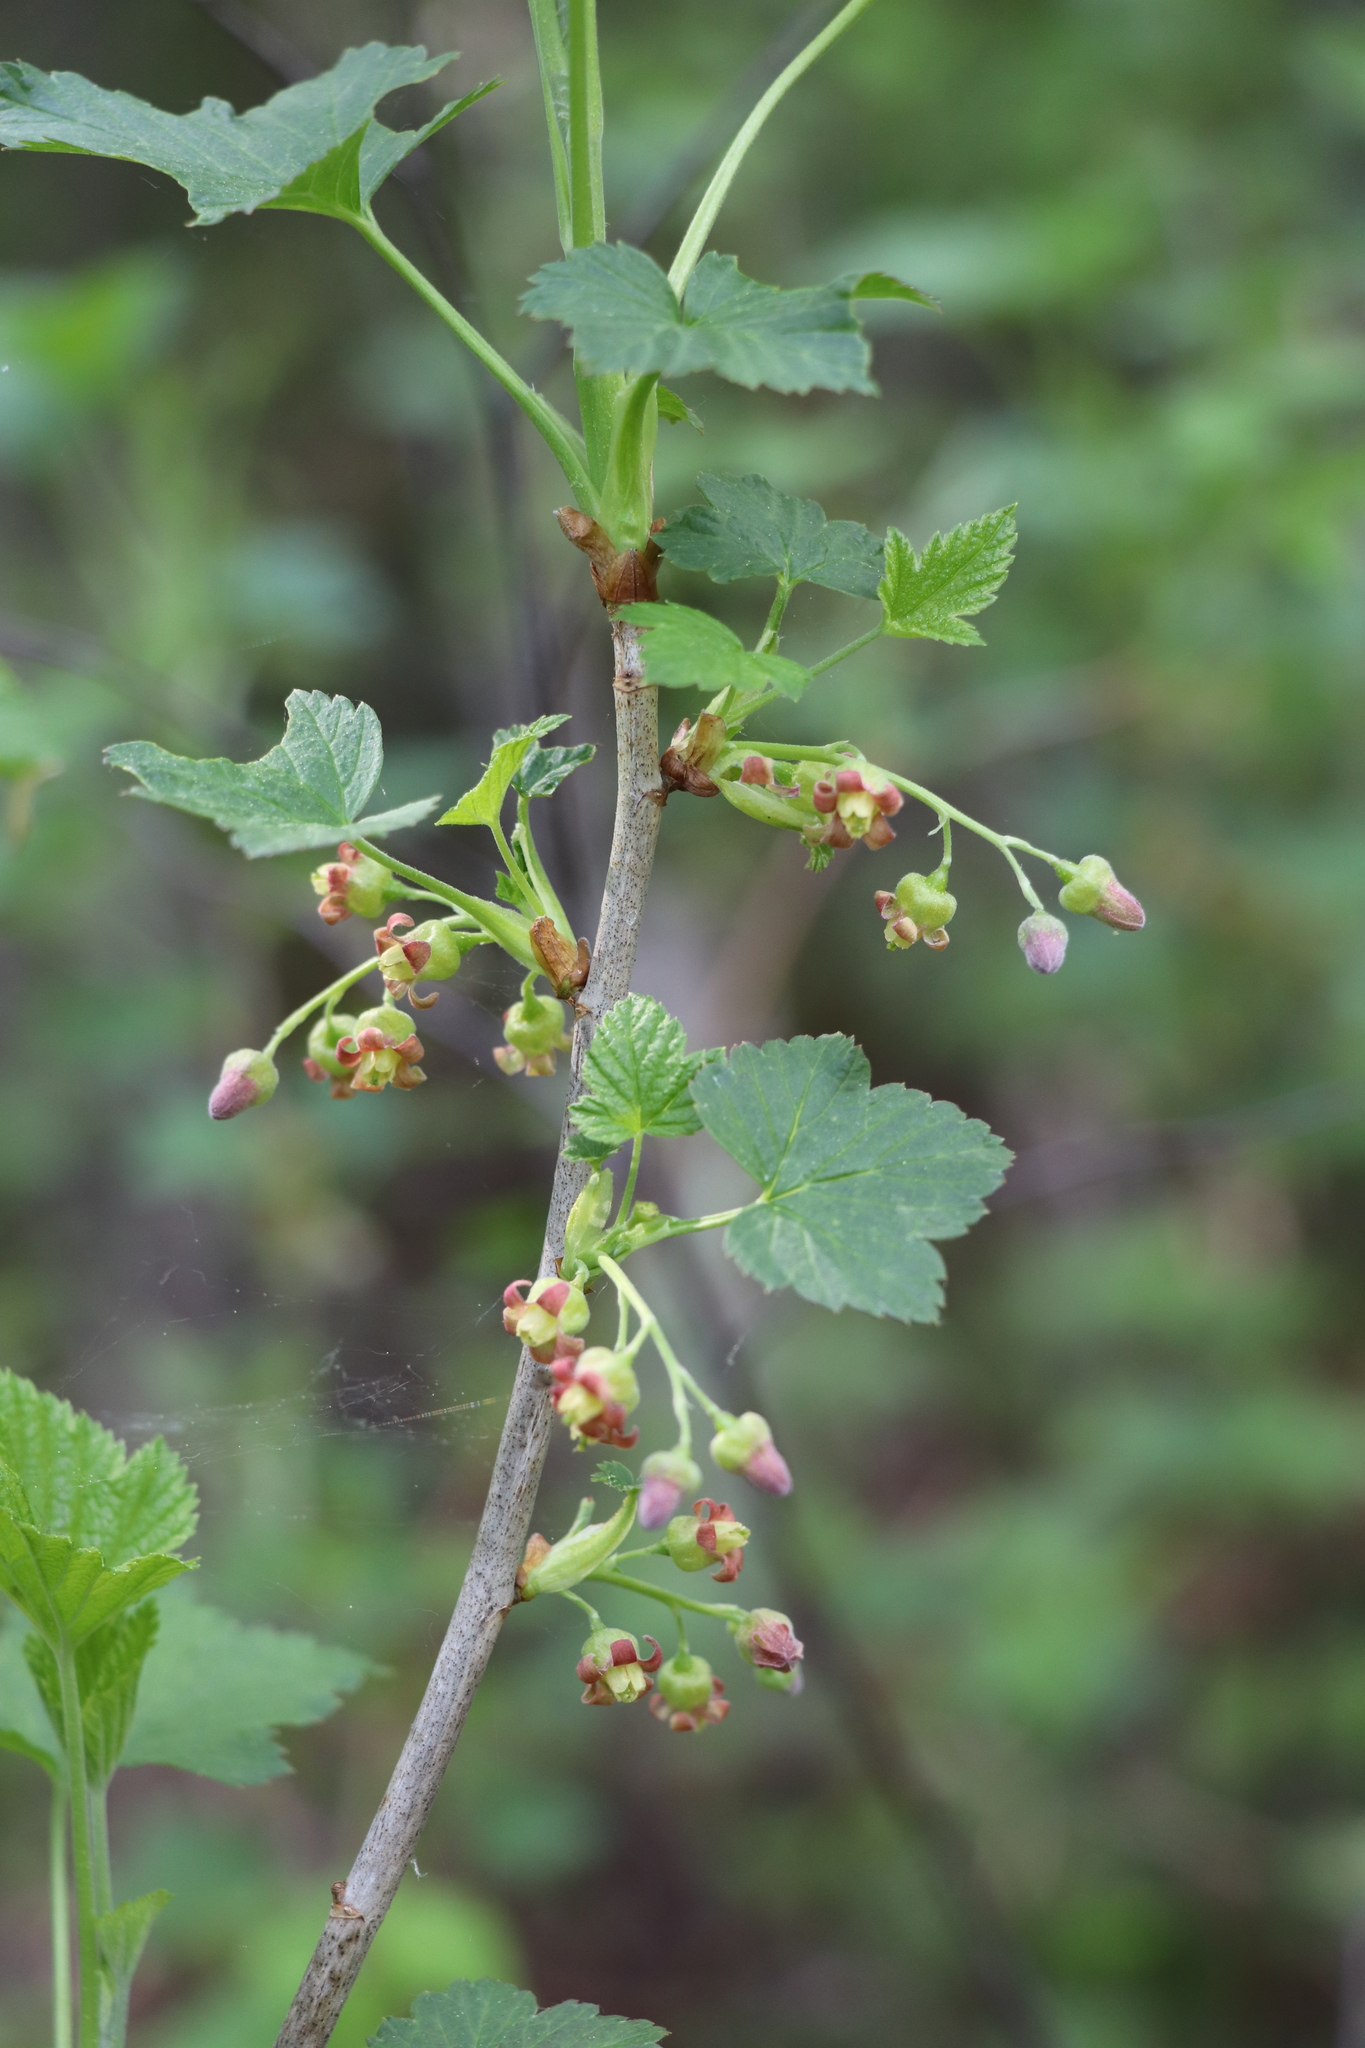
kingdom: Plantae
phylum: Tracheophyta
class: Magnoliopsida
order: Saxifragales
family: Grossulariaceae
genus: Ribes
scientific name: Ribes nigrum
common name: Black currant
